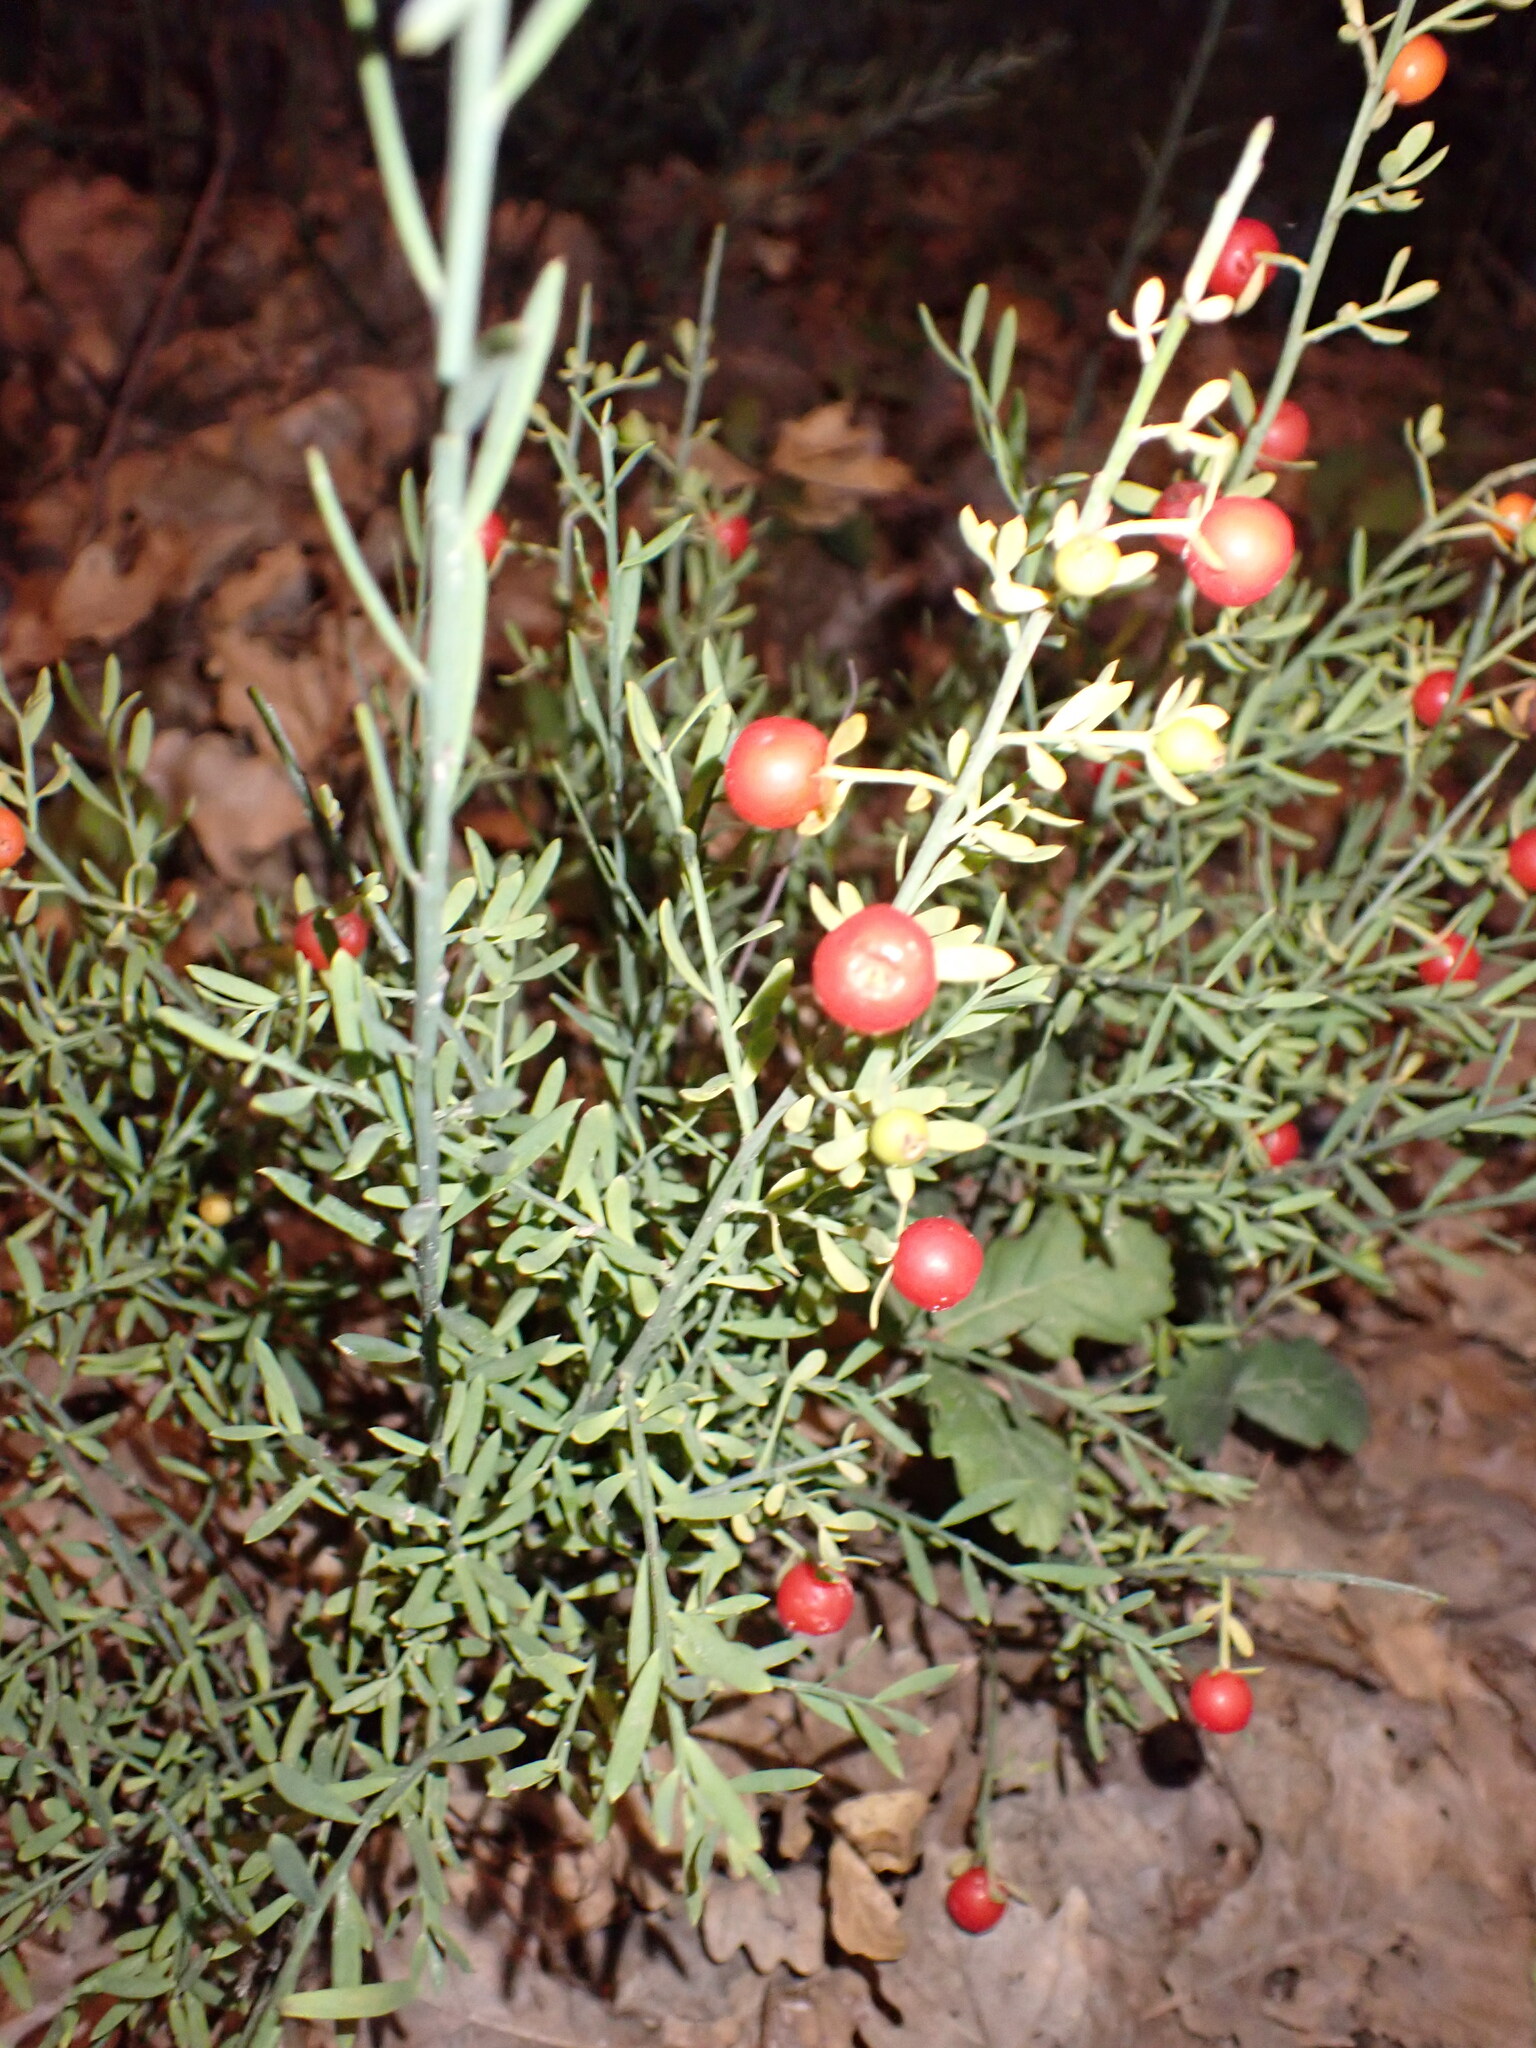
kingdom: Plantae
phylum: Tracheophyta
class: Magnoliopsida
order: Santalales
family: Santalaceae
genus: Osyris
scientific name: Osyris alba
